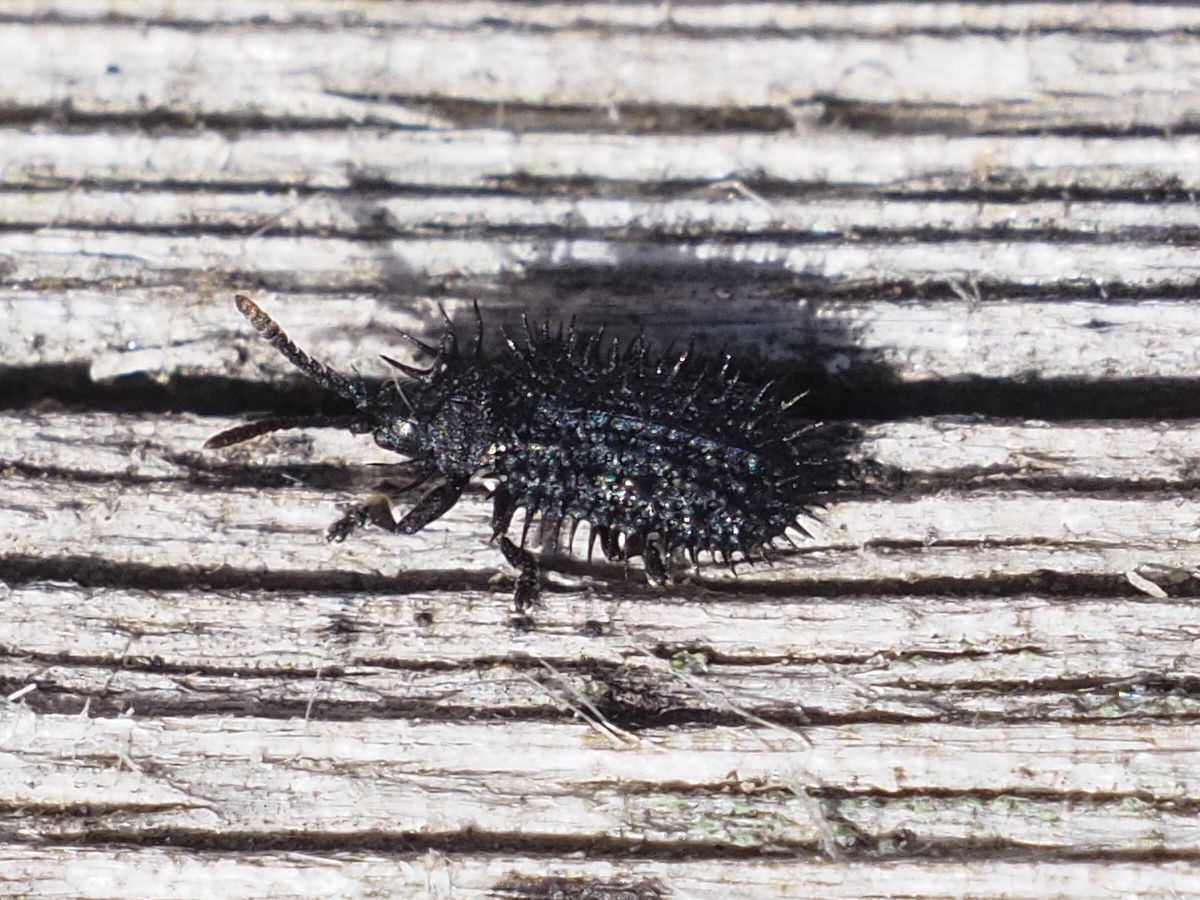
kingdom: Animalia
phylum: Arthropoda
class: Insecta
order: Coleoptera
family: Chrysomelidae
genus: Hispa
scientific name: Hispa atra
